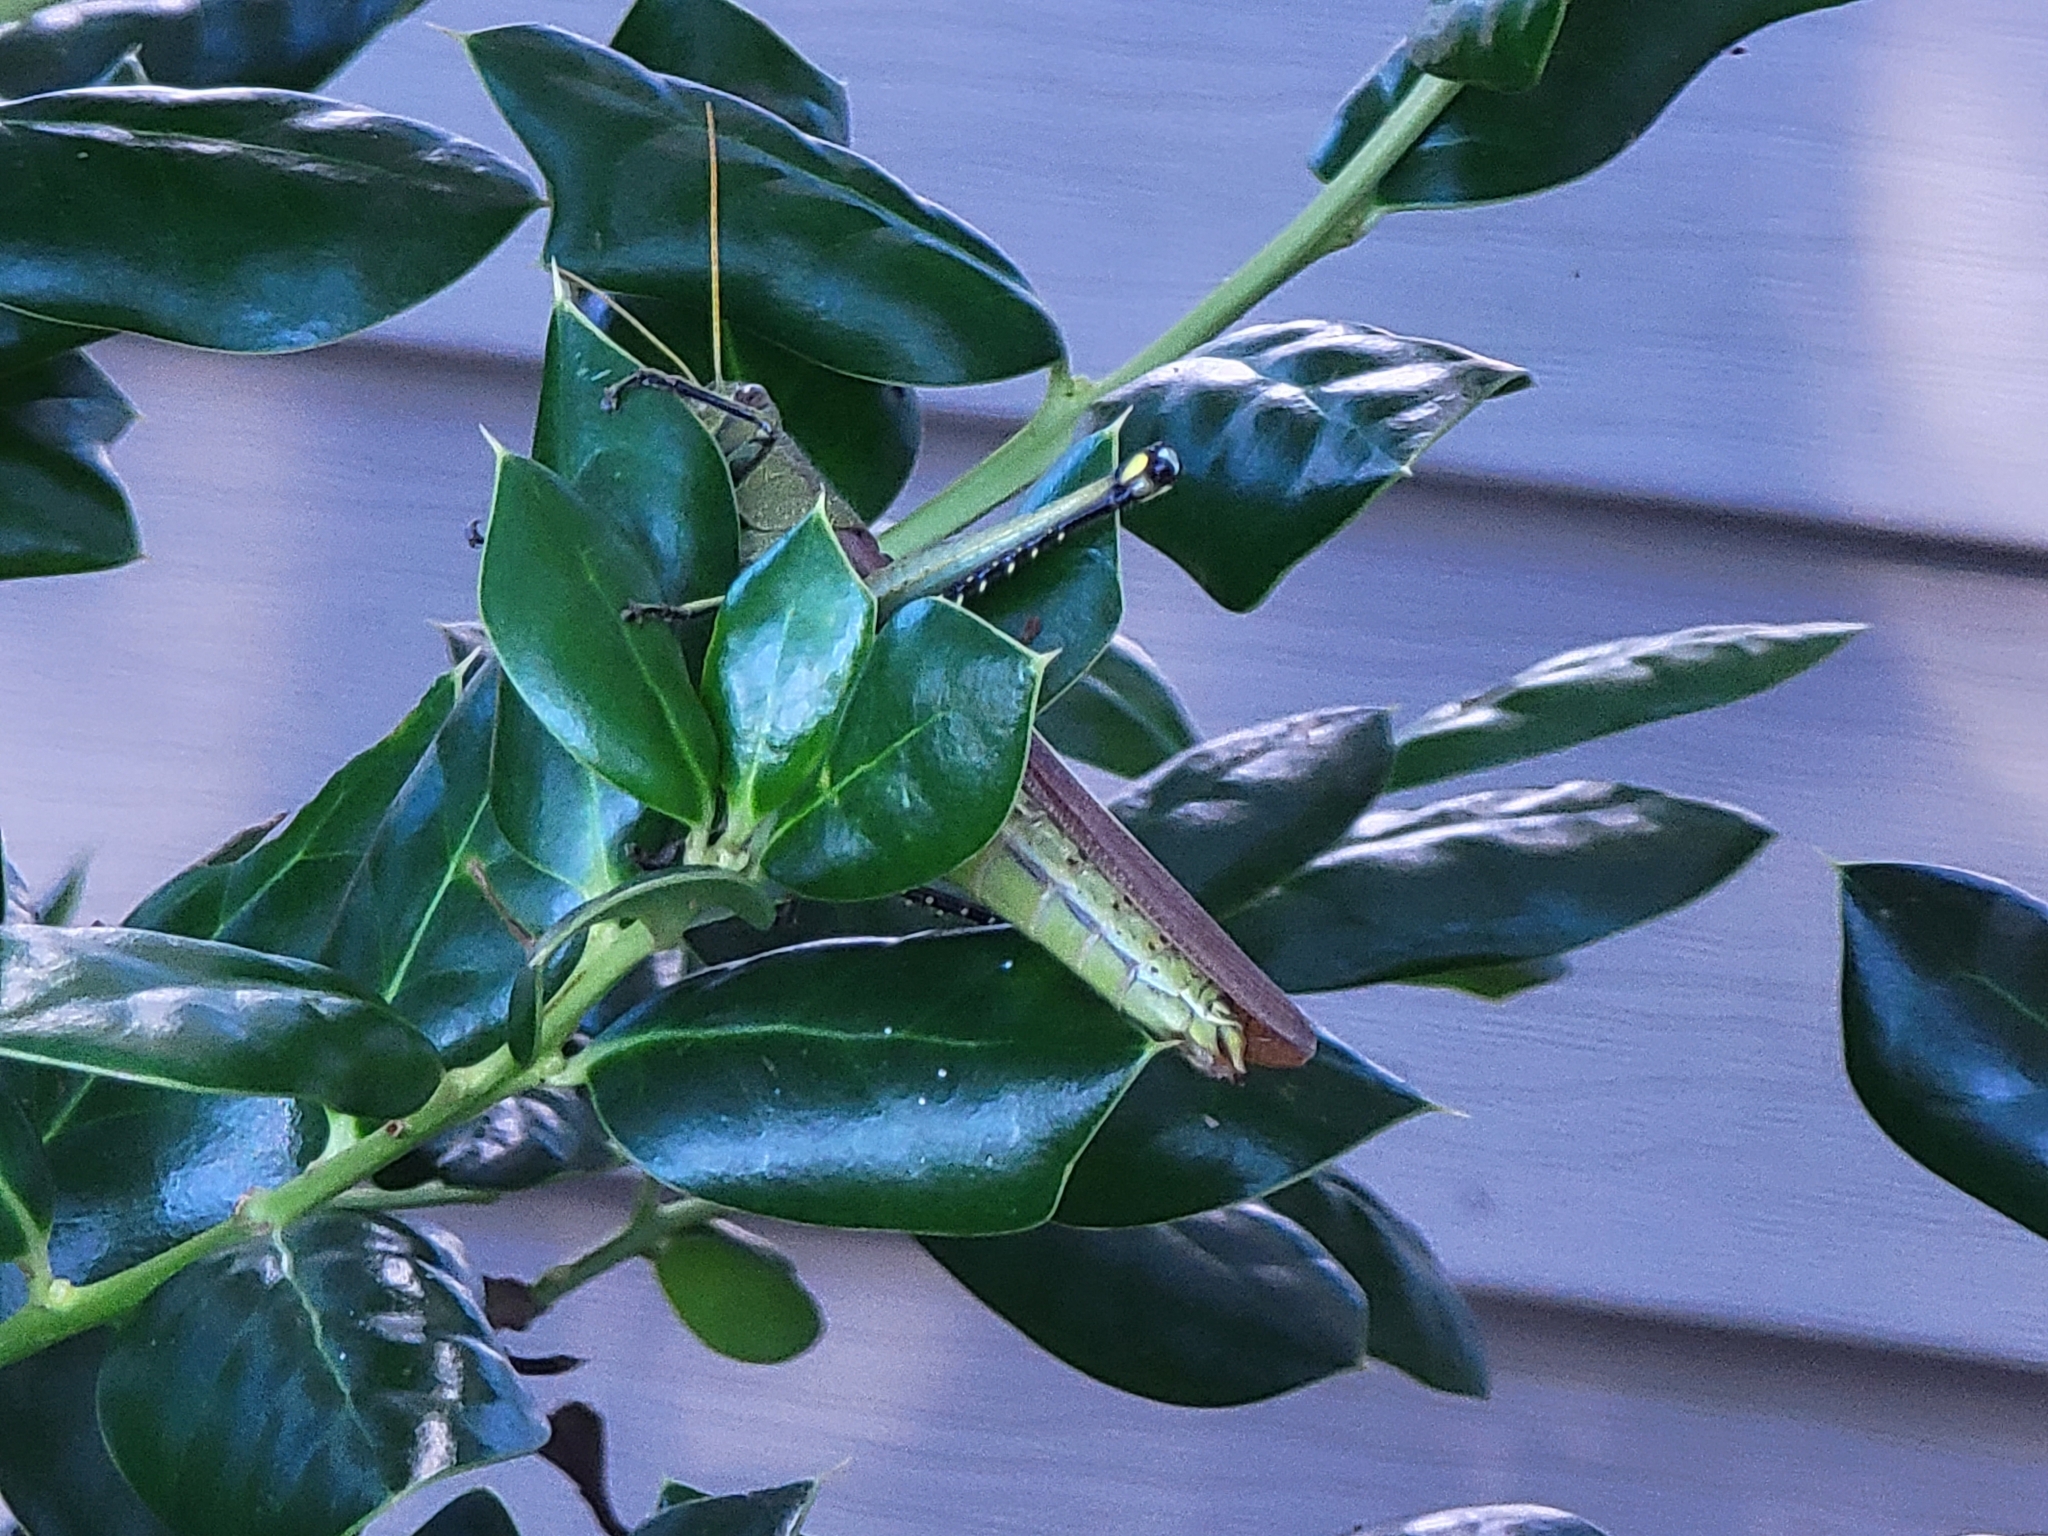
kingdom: Animalia
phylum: Arthropoda
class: Insecta
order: Orthoptera
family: Acrididae
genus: Schistocerca
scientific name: Schistocerca obscura
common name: Obscure bird grasshopper
